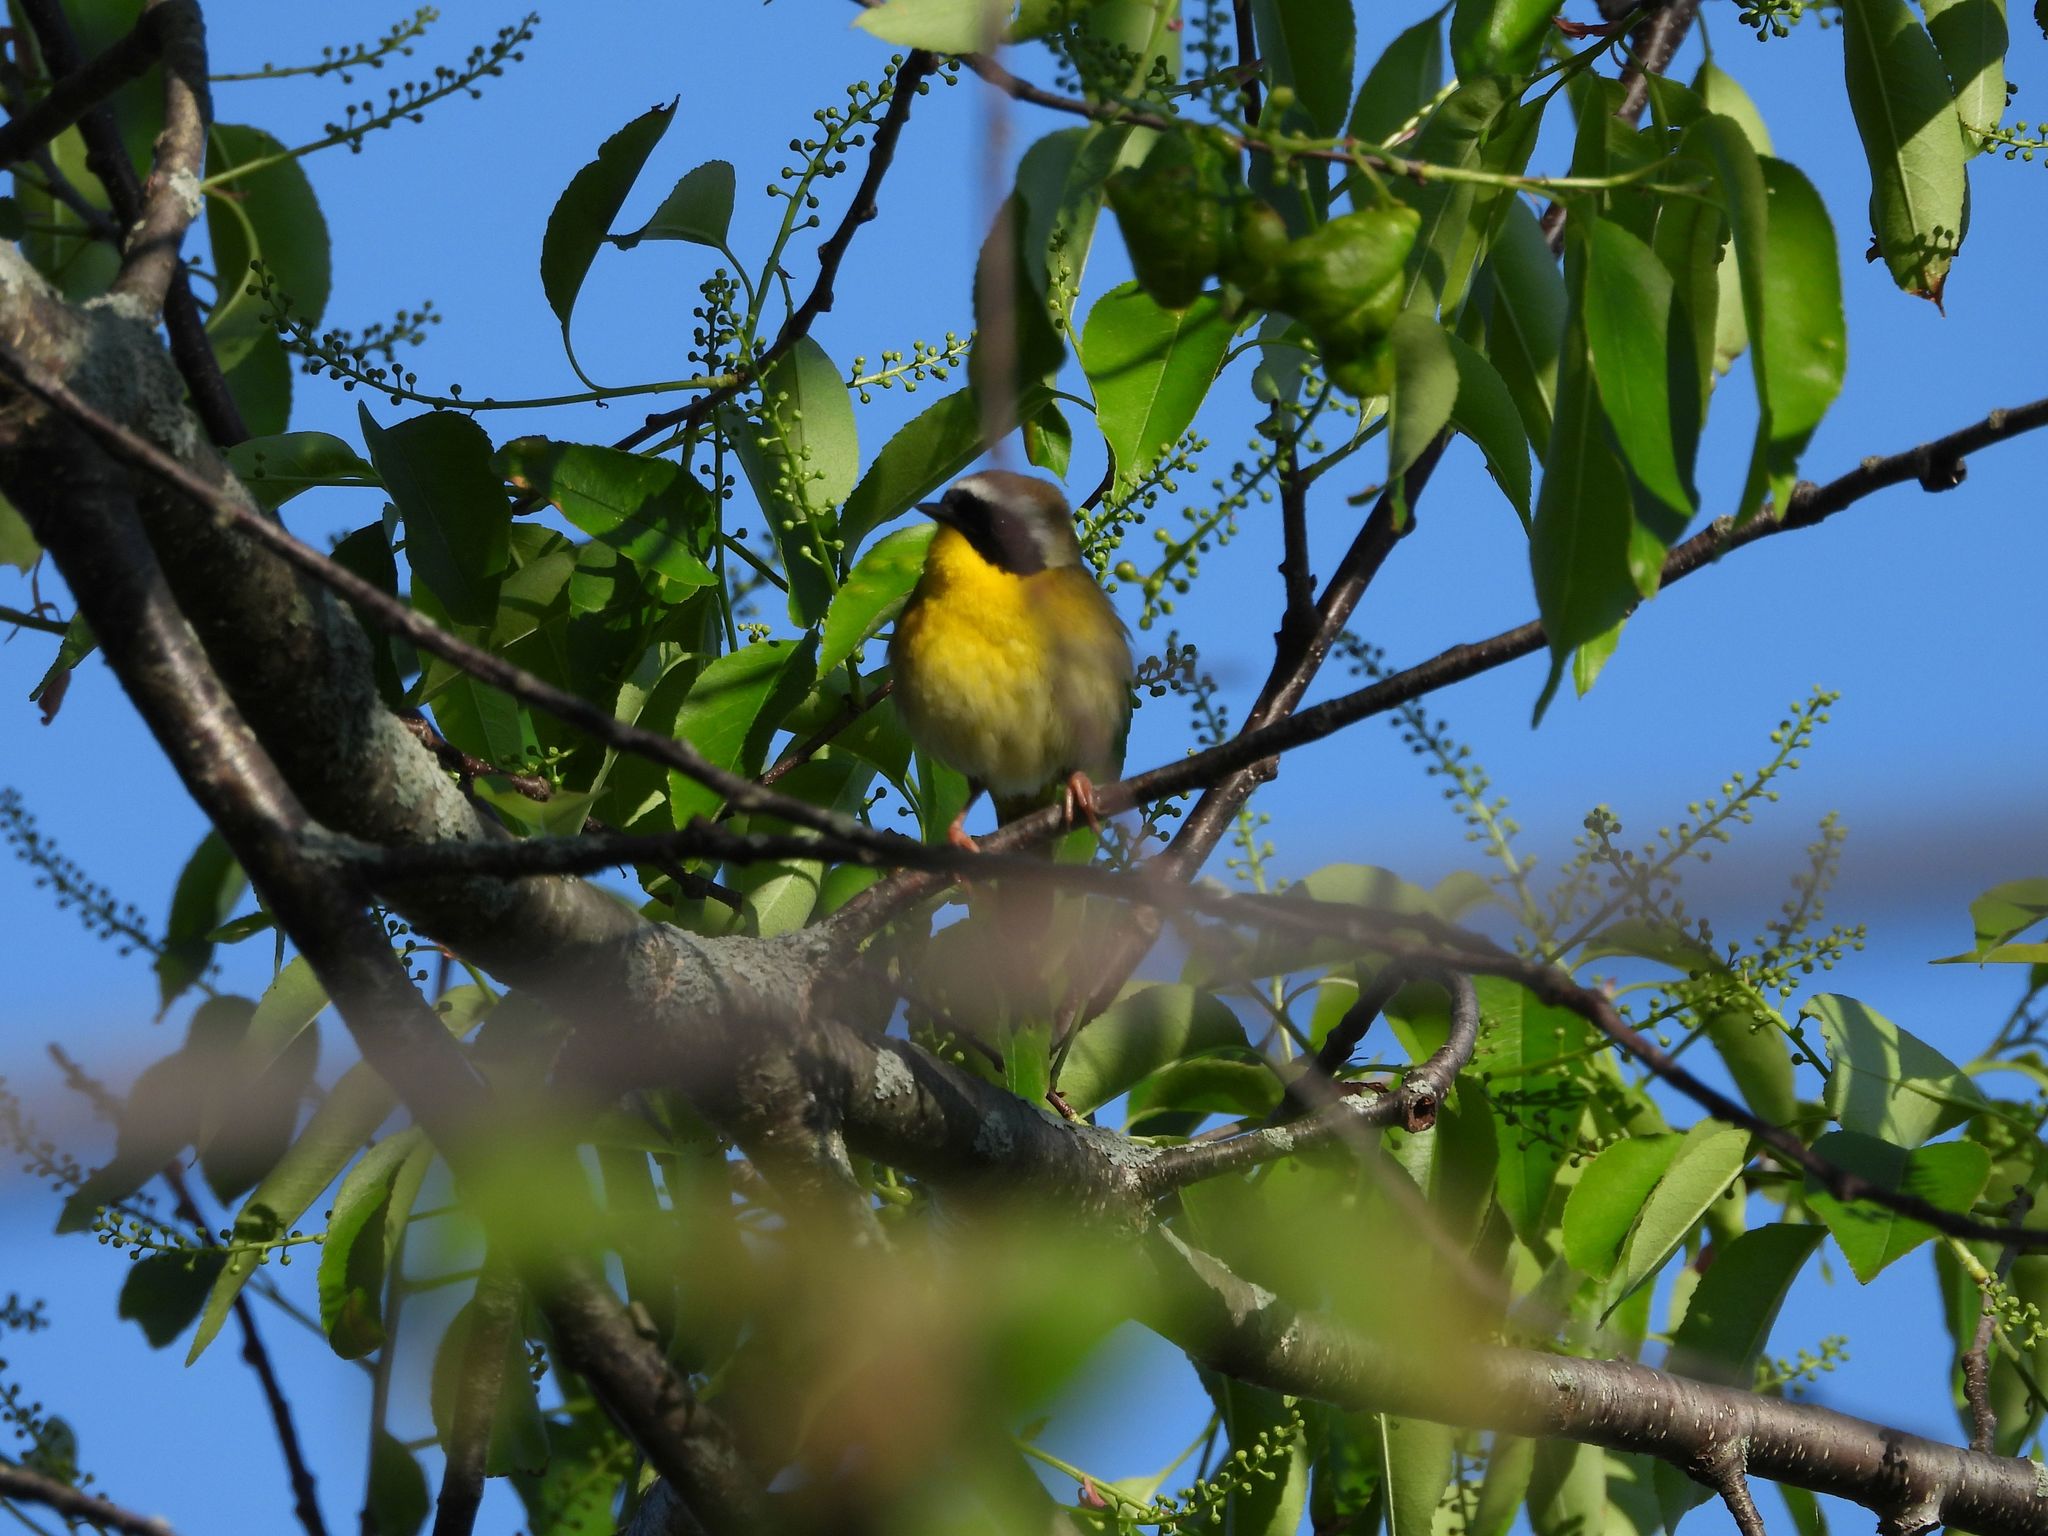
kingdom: Animalia
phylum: Chordata
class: Aves
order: Passeriformes
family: Parulidae
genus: Geothlypis
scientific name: Geothlypis trichas
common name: Common yellowthroat
